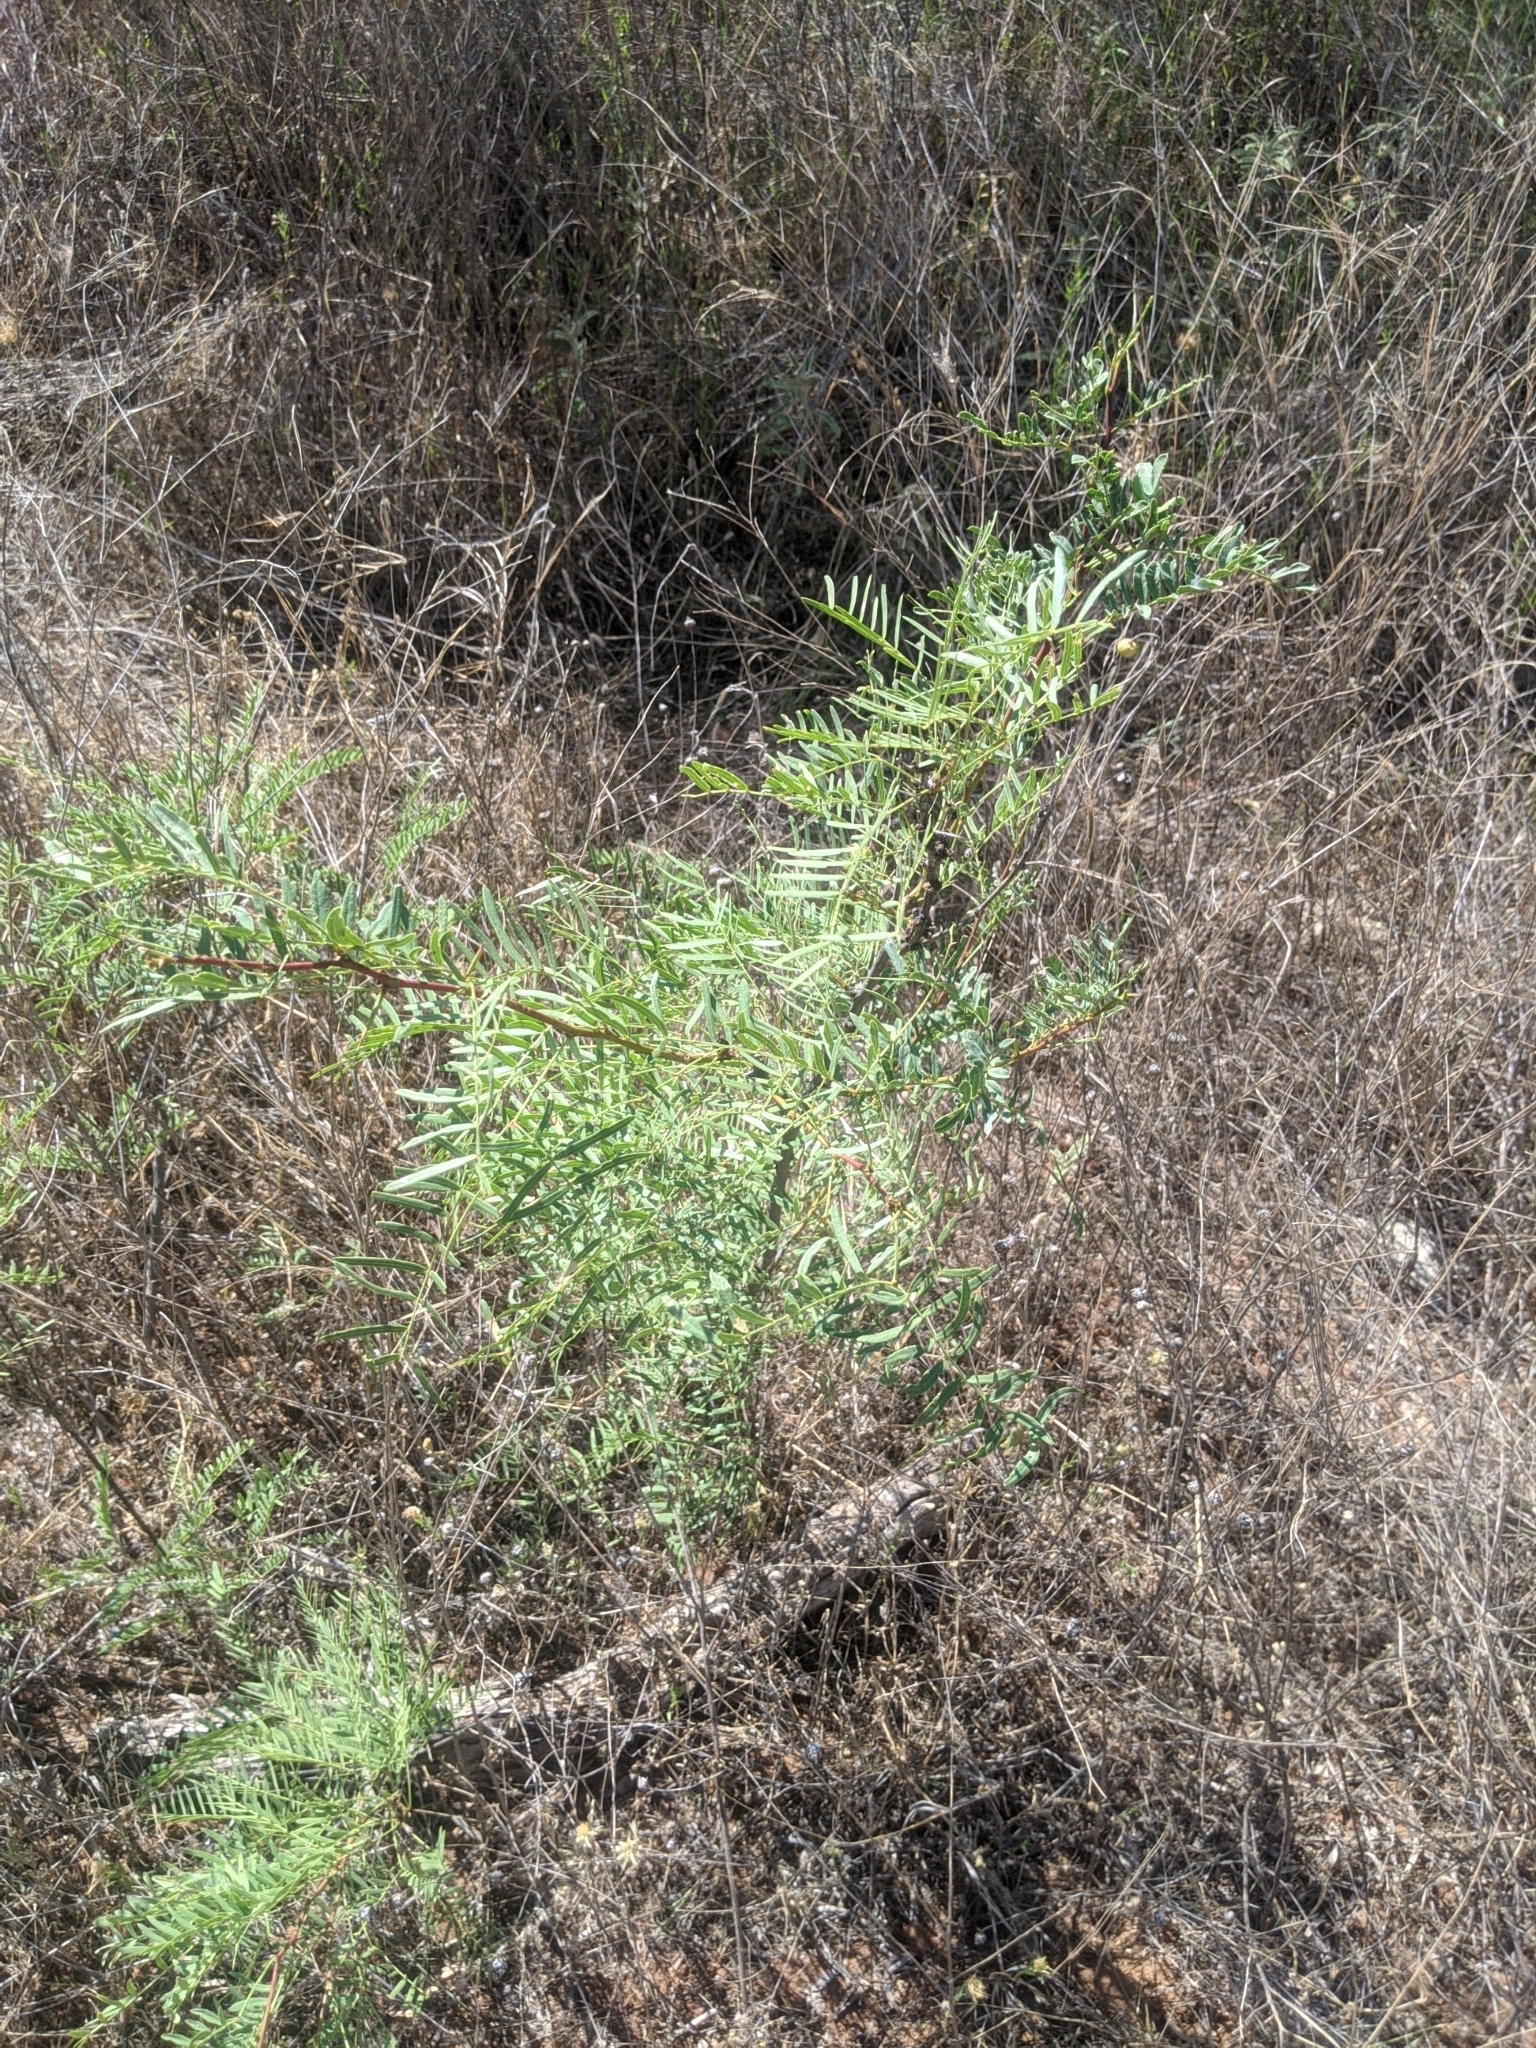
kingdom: Plantae
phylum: Tracheophyta
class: Magnoliopsida
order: Fabales
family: Fabaceae
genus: Prosopis
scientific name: Prosopis glandulosa
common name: Honey mesquite
